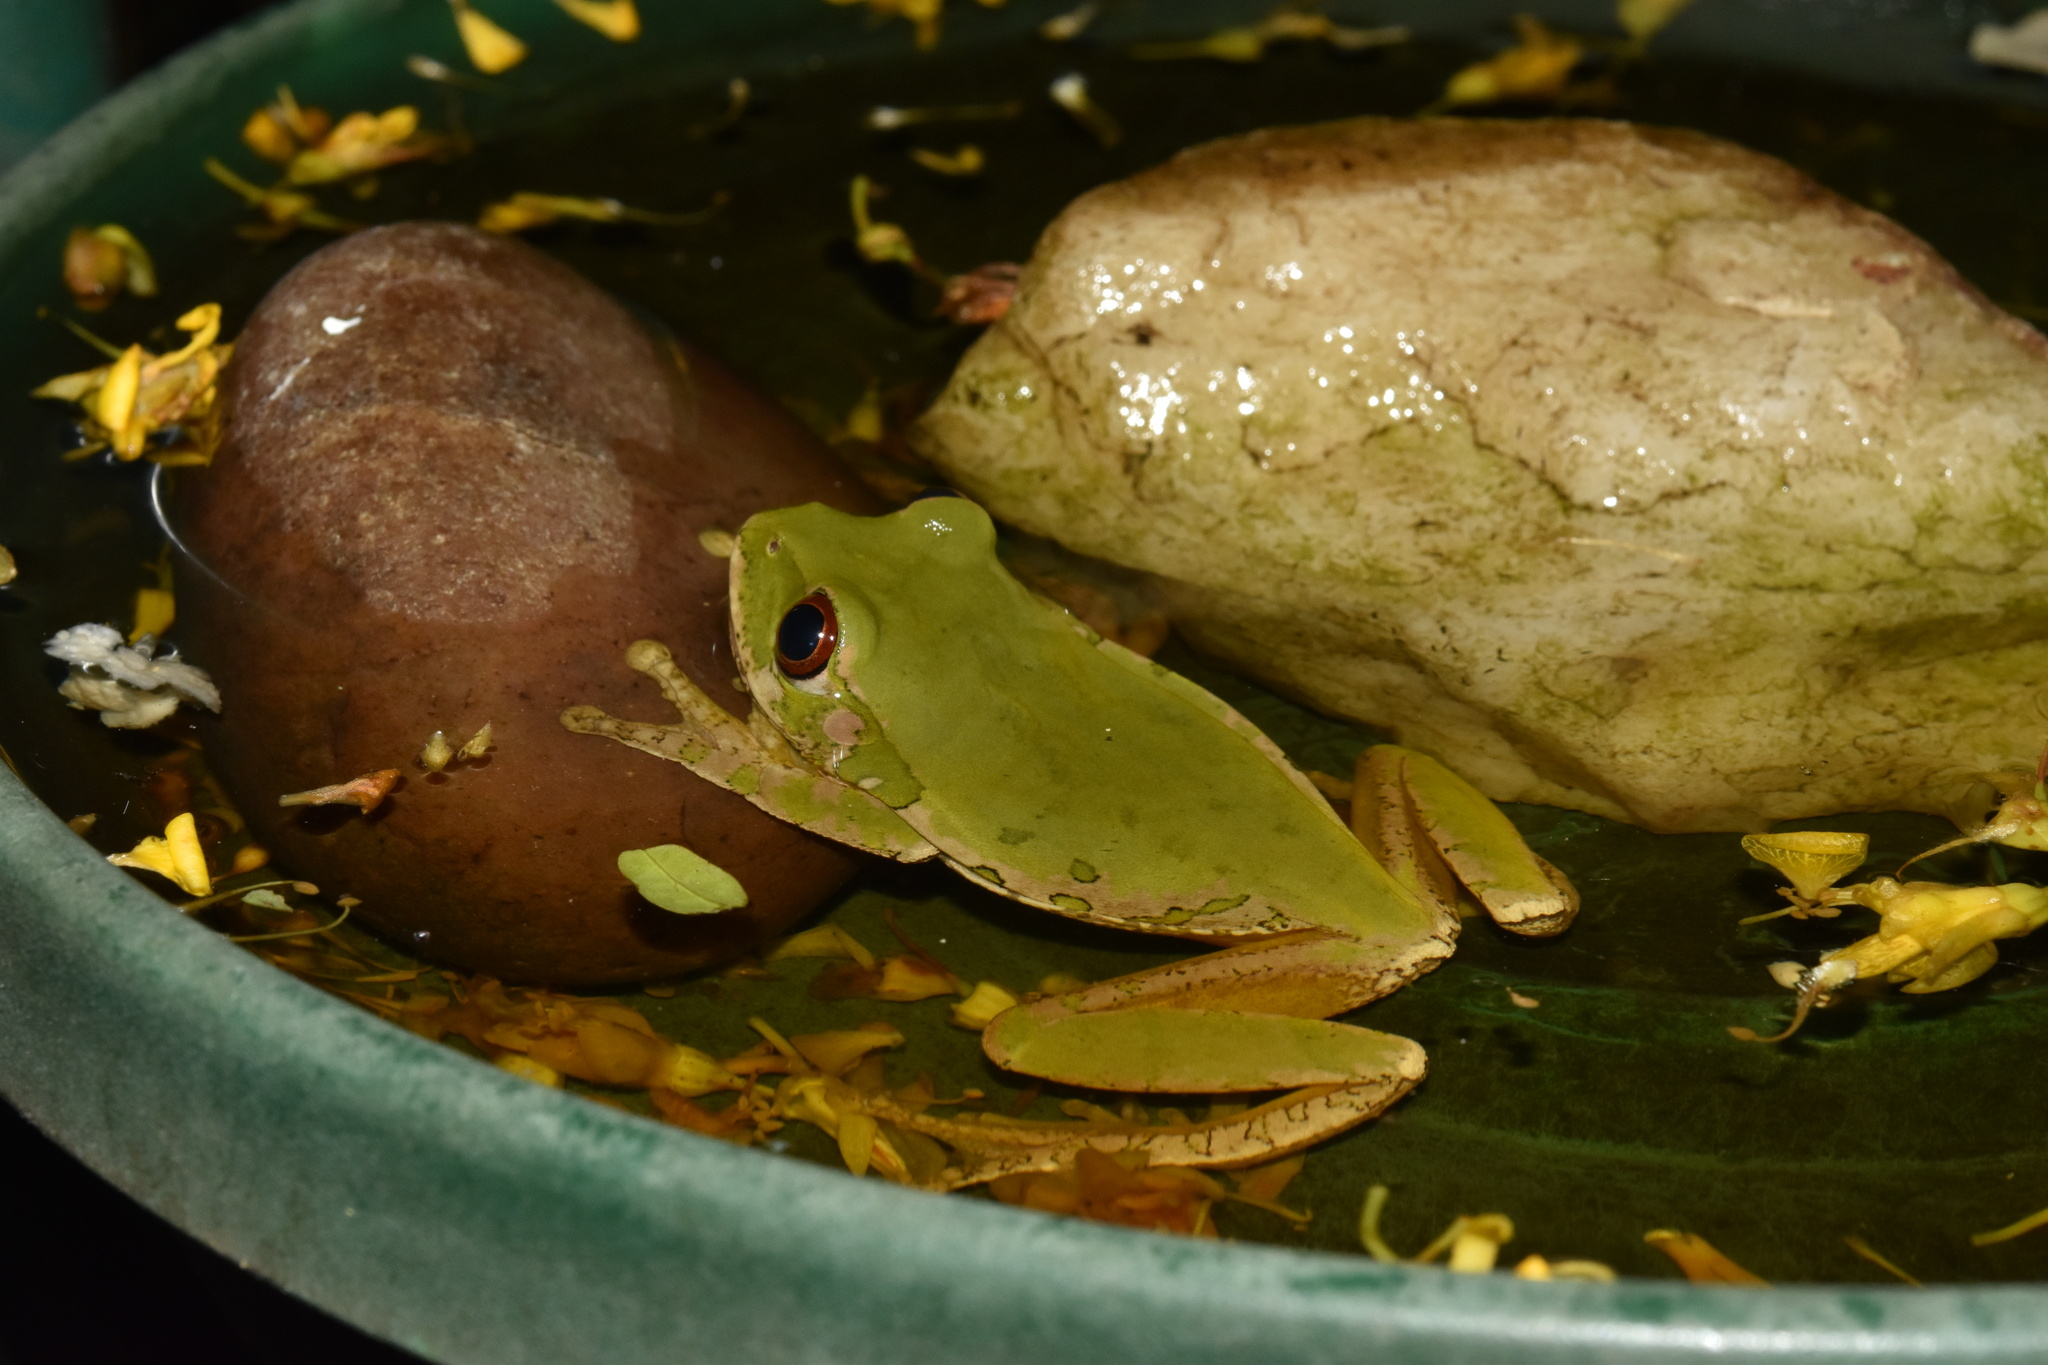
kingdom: Animalia
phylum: Chordata
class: Amphibia
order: Anura
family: Arthroleptidae
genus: Leptopelis
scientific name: Leptopelis natalensis
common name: Natal tree frog
